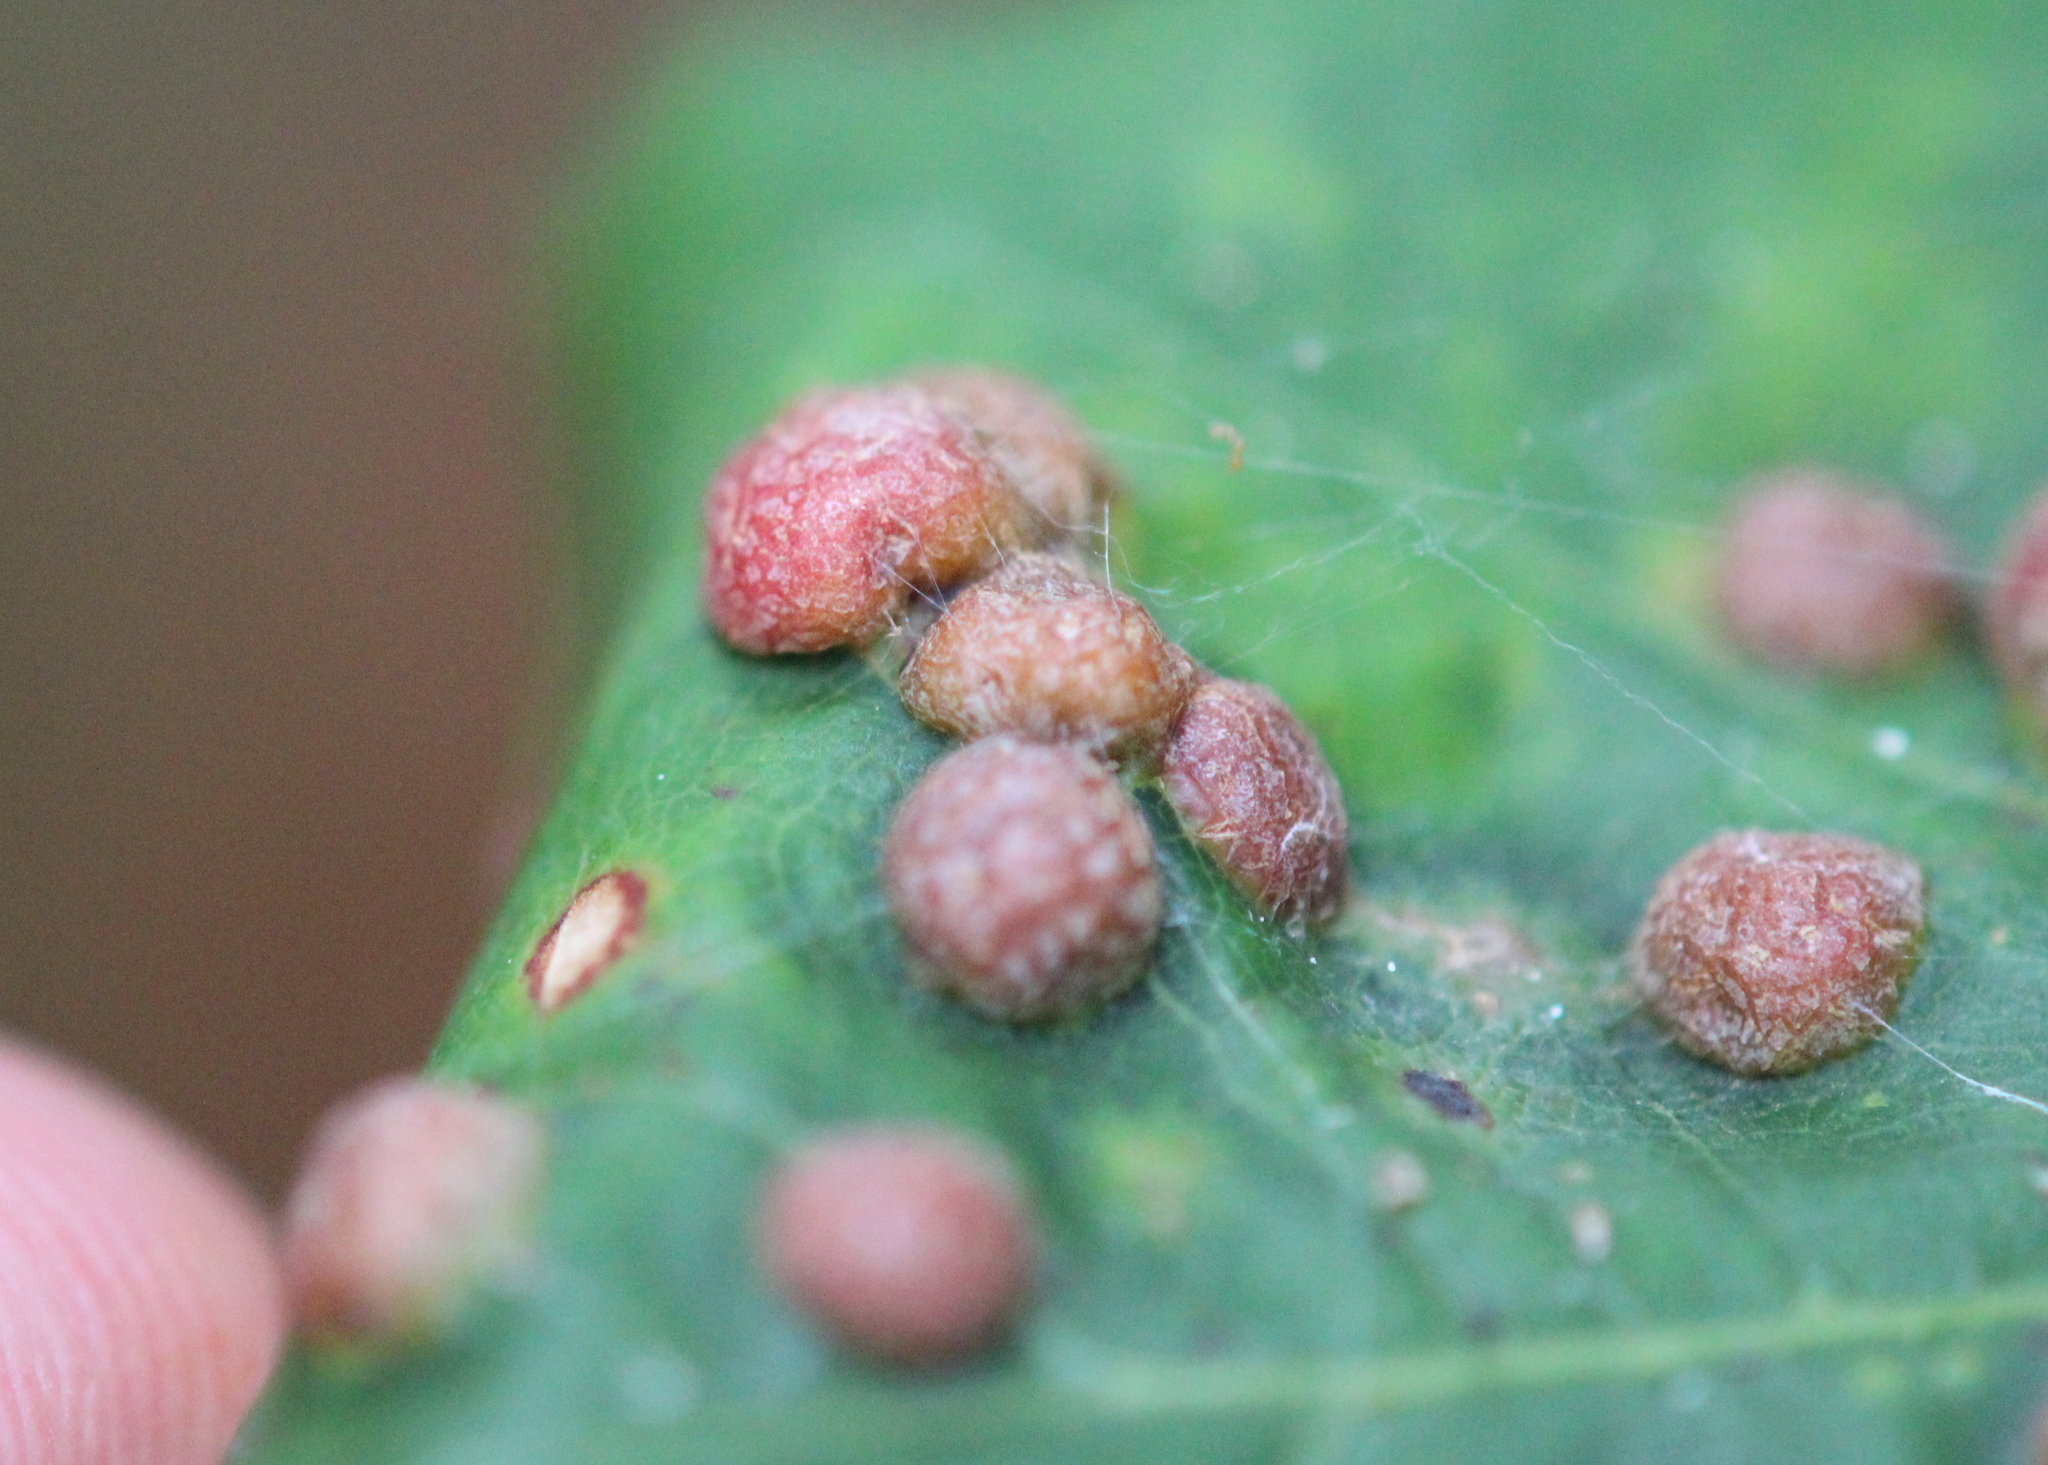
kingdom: Animalia
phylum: Arthropoda
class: Insecta
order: Diptera
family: Cecidomyiidae
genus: Polystepha
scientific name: Polystepha pilulae
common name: Oak leaf gall midge
